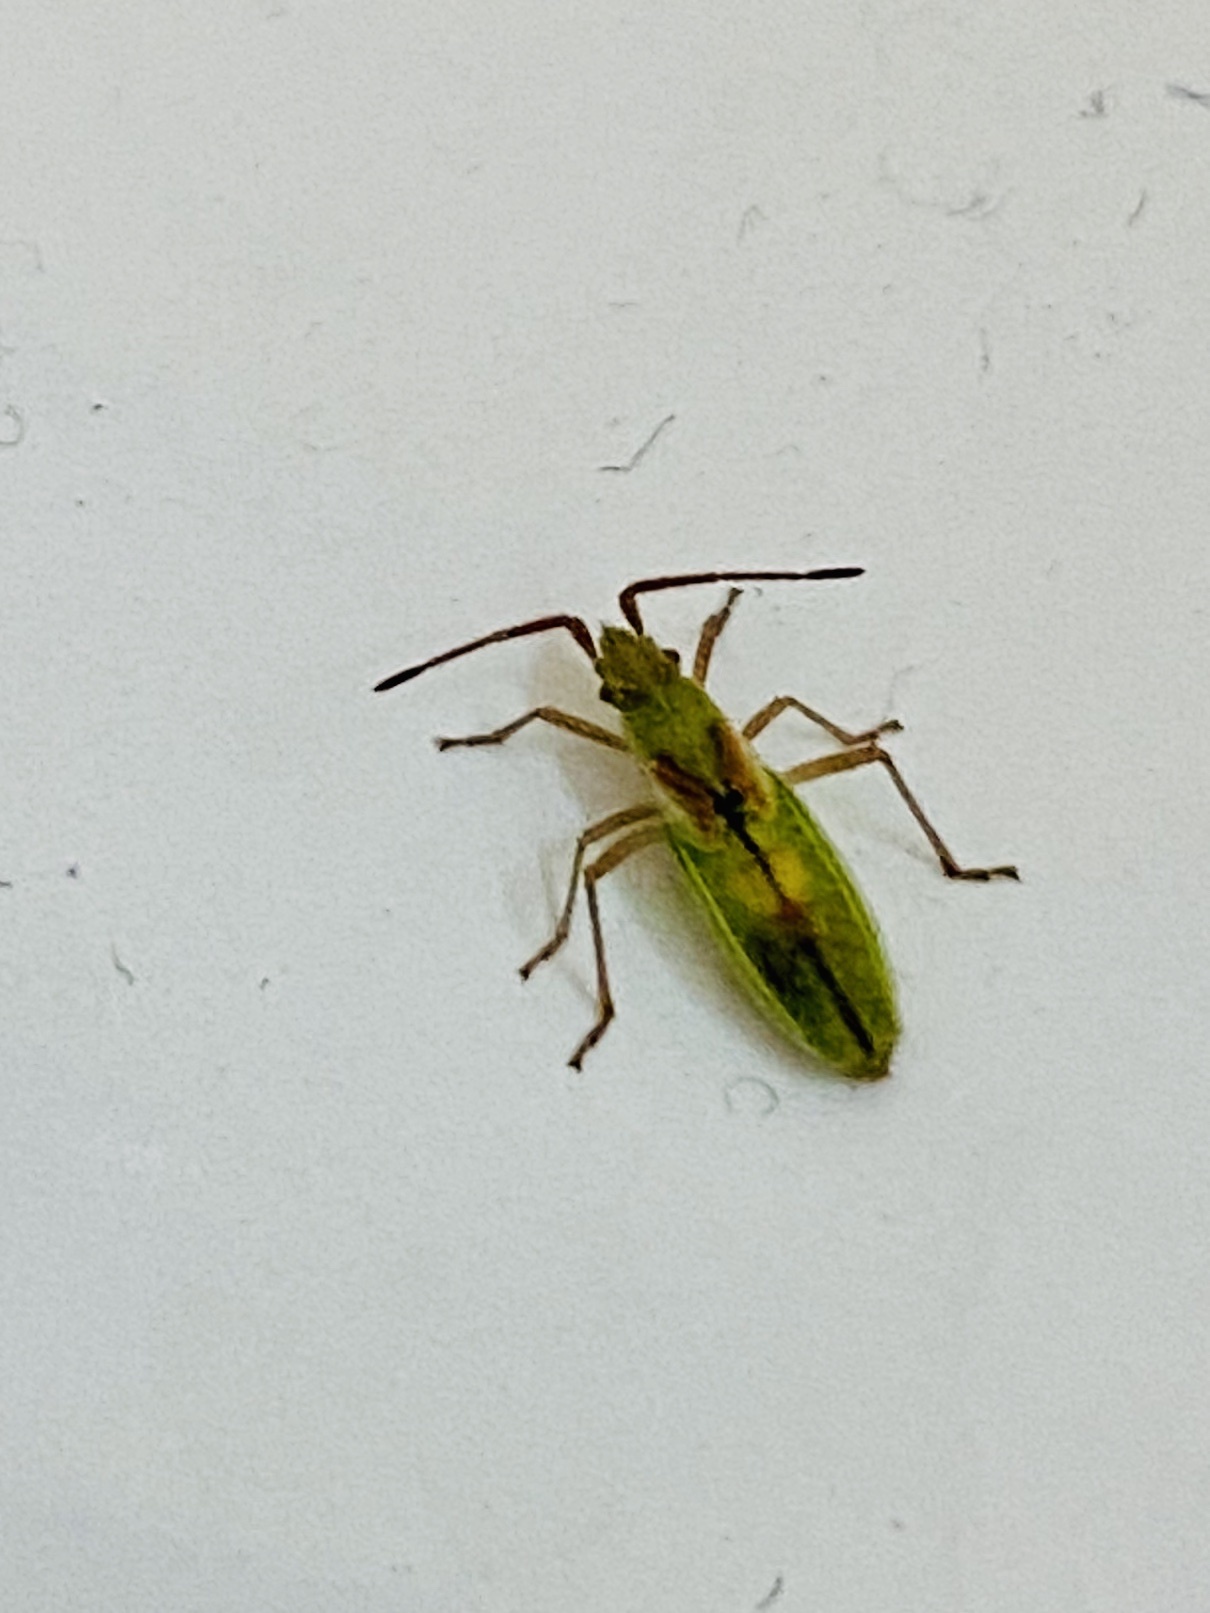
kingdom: Animalia
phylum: Arthropoda
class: Insecta
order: Hemiptera
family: Rhopalidae
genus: Myrmus
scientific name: Myrmus miriformis
